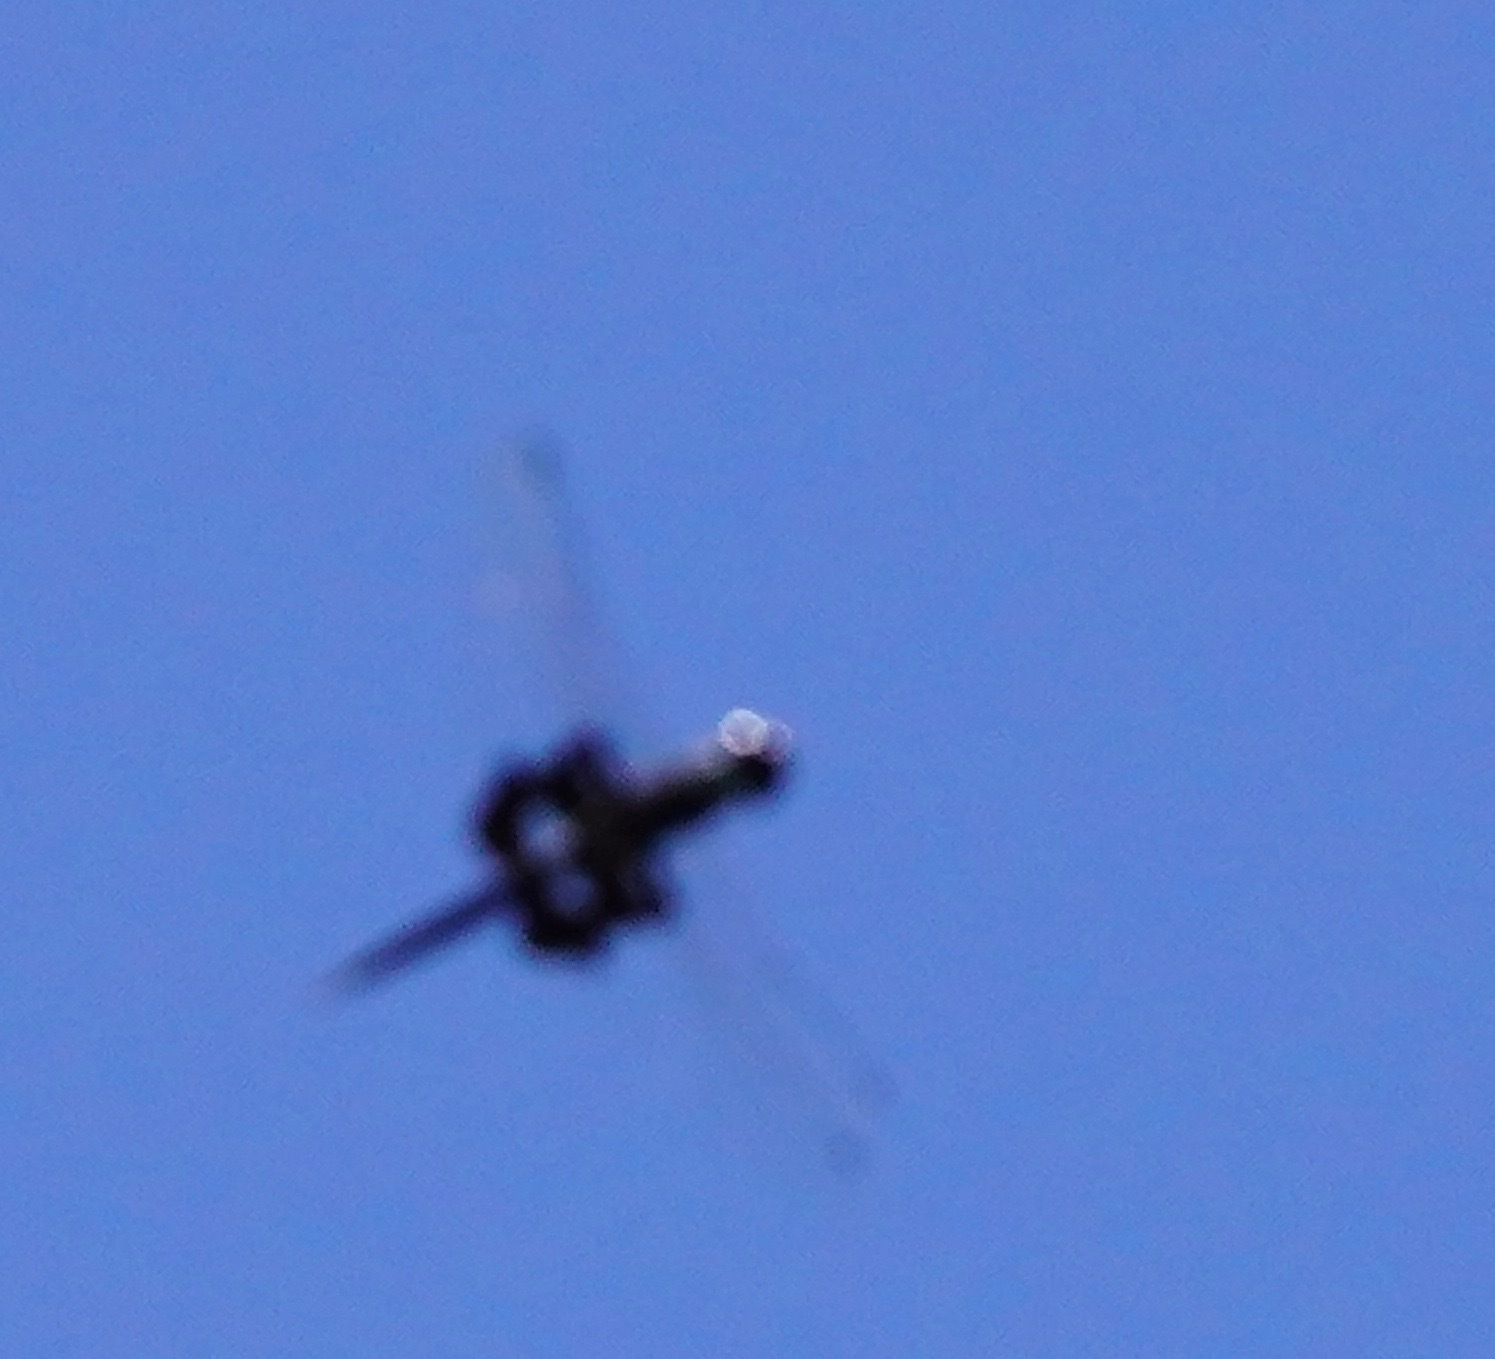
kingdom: Animalia
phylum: Arthropoda
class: Insecta
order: Odonata
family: Libellulidae
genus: Tramea
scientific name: Tramea lacerata
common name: Black saddlebags
